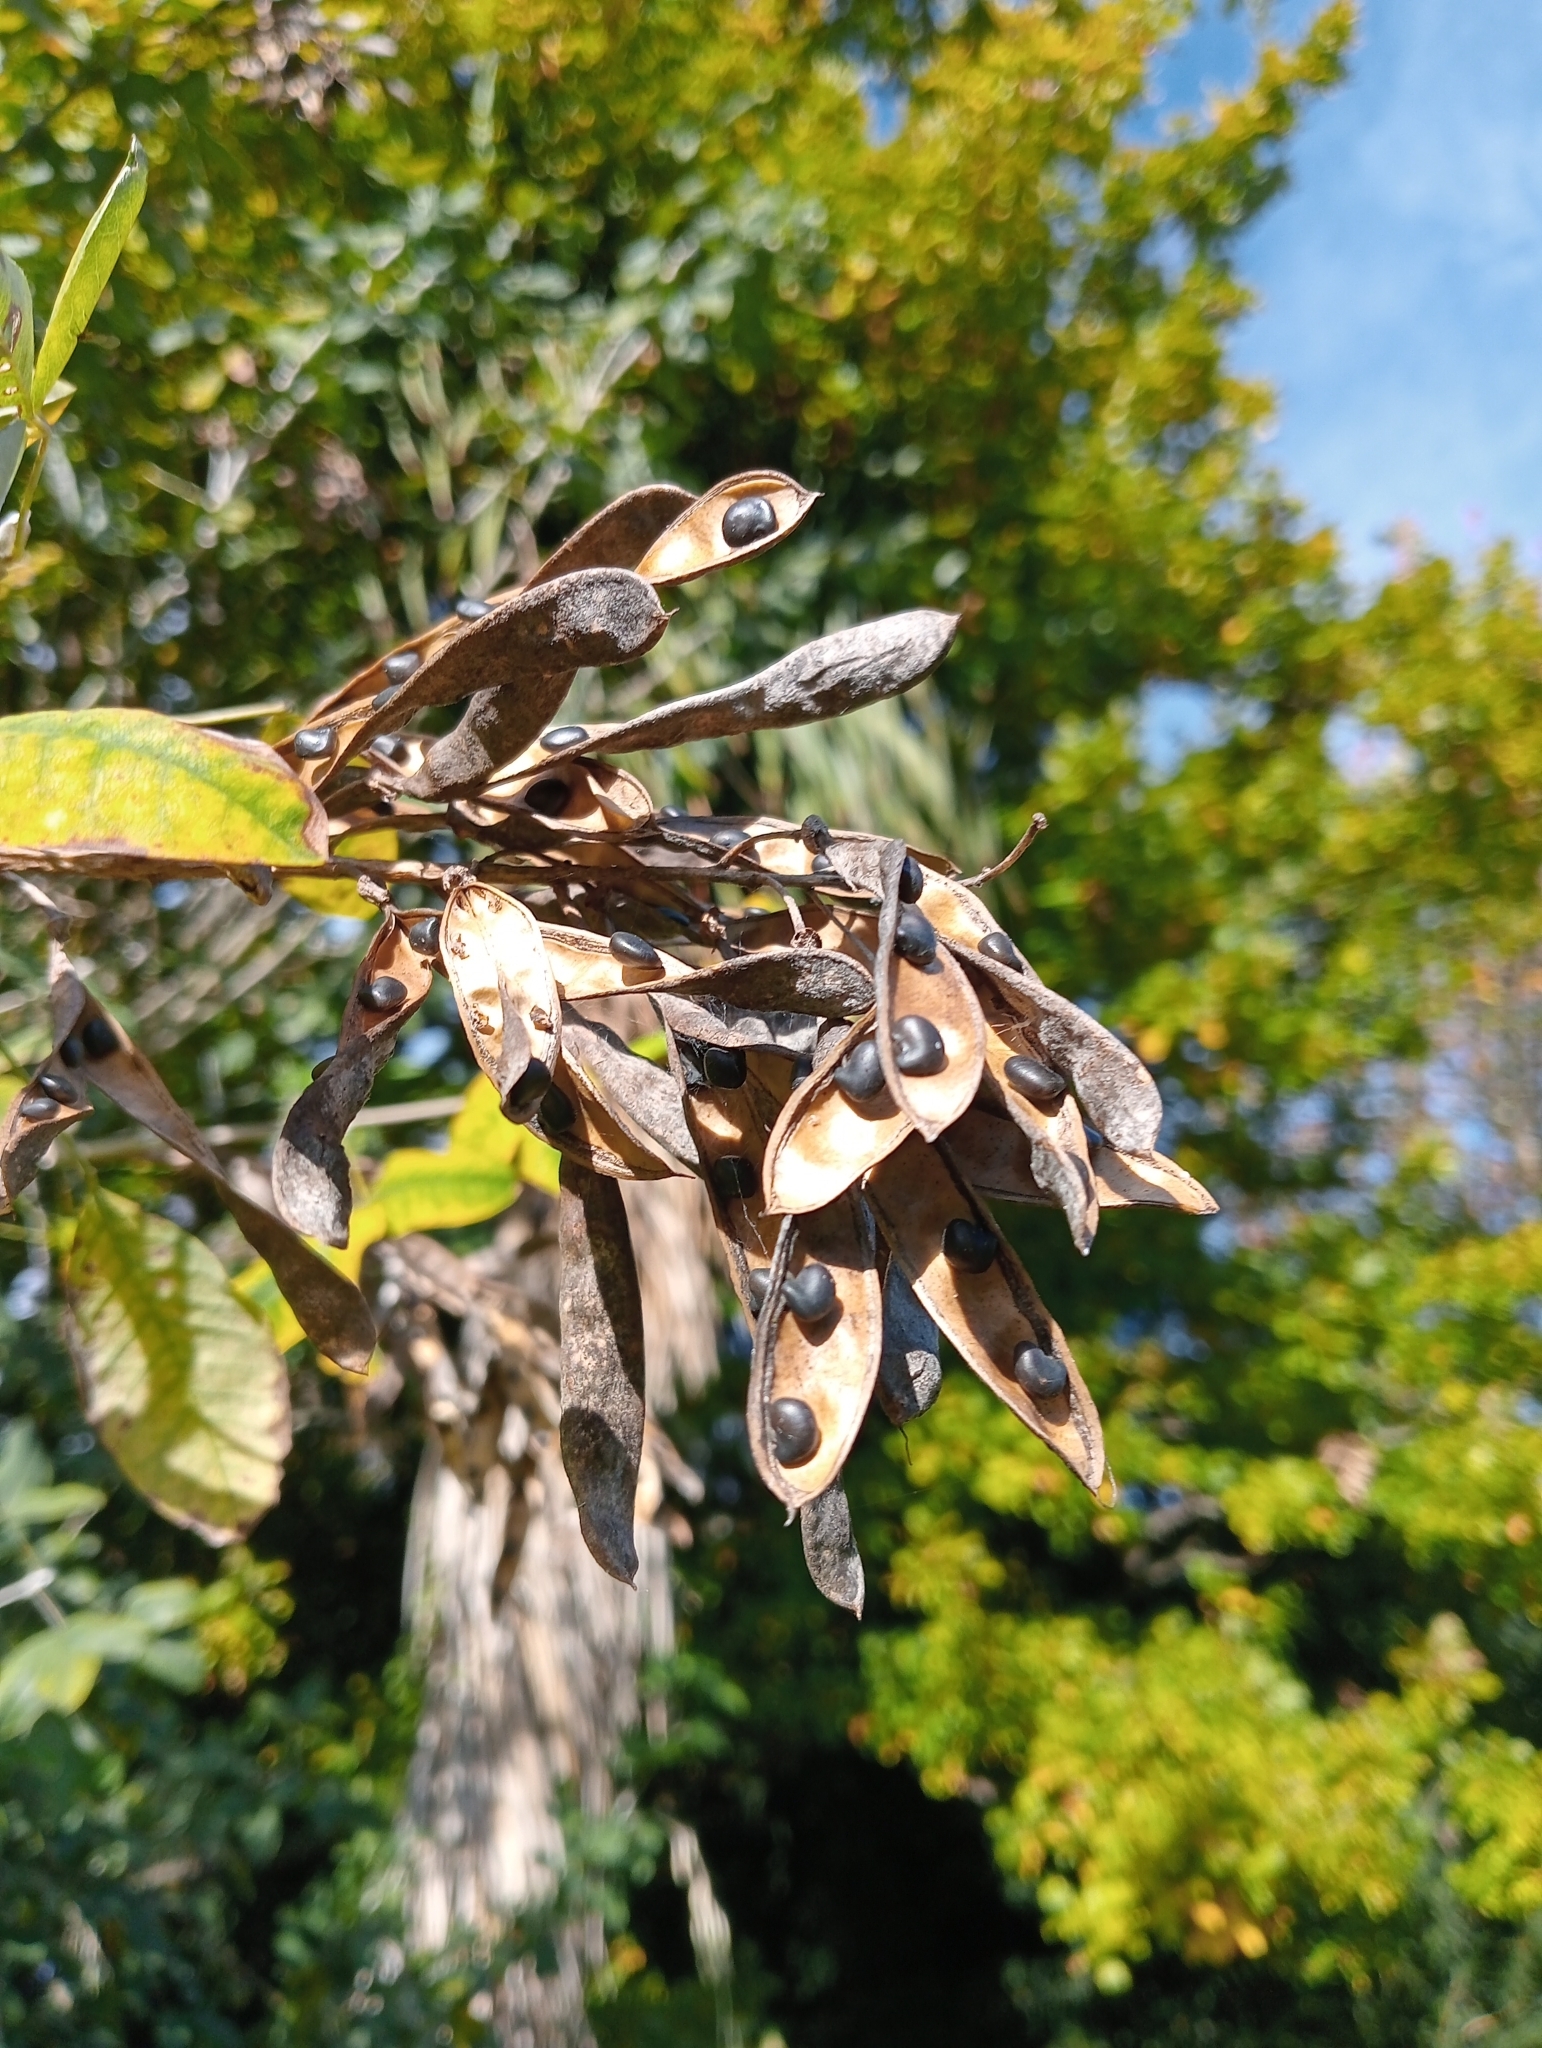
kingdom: Plantae
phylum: Tracheophyta
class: Magnoliopsida
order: Fabales
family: Fabaceae
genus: Laburnum
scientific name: Laburnum anagyroides
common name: Laburnum
